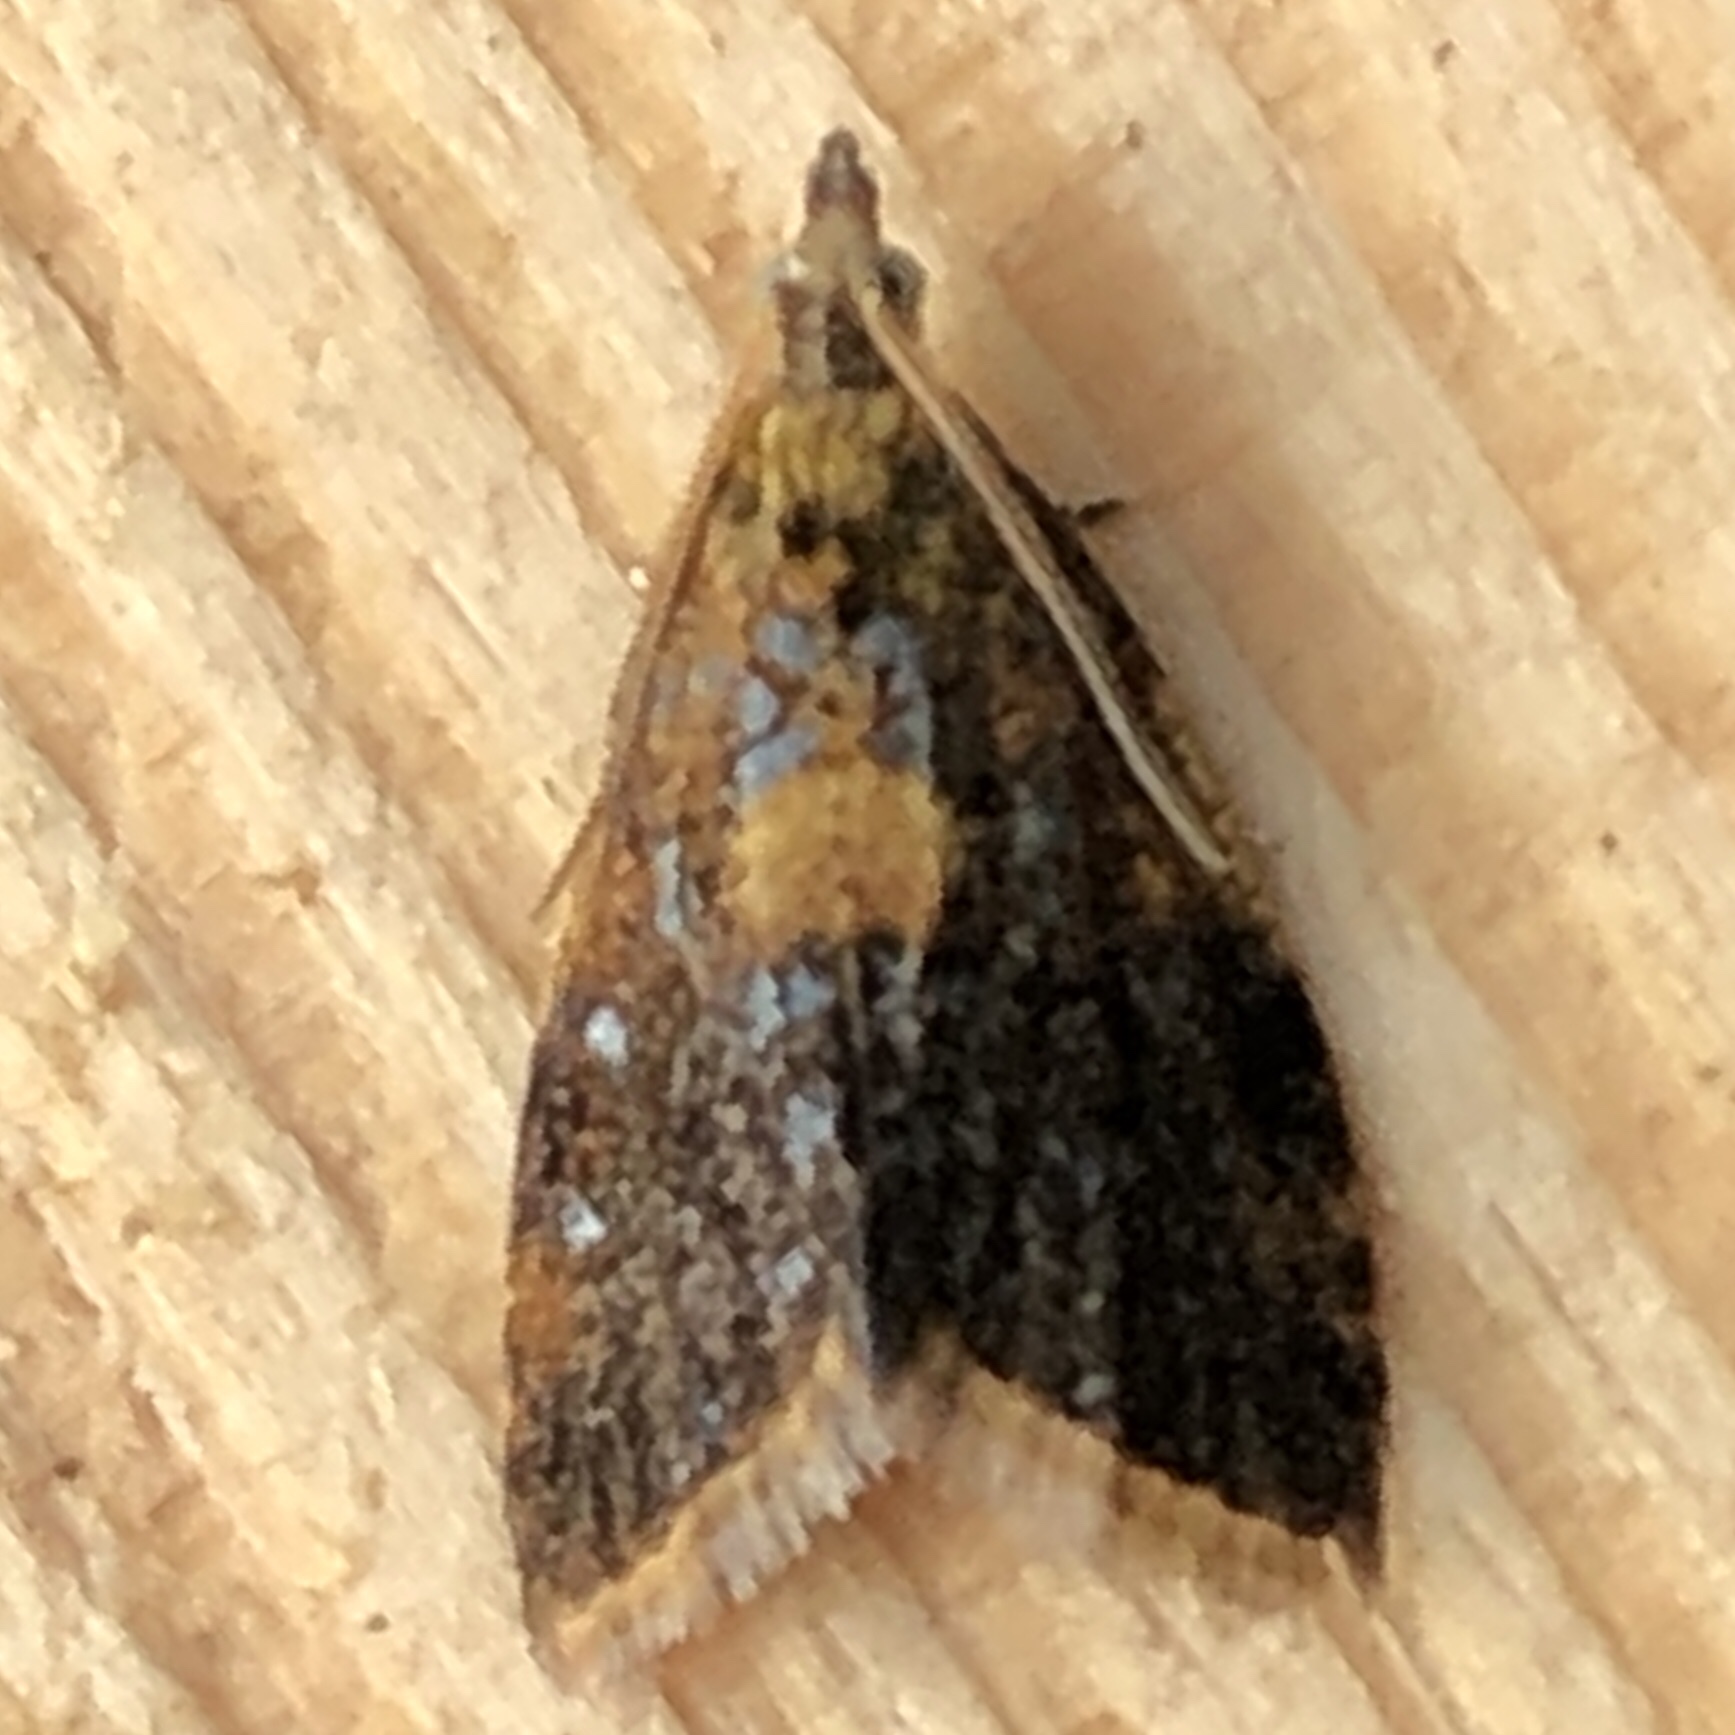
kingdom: Animalia
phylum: Arthropoda
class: Insecta
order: Lepidoptera
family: Tortricidae
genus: Pseudargyrotoza
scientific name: Pseudargyrotoza conwagana
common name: Yellow-spot twist
